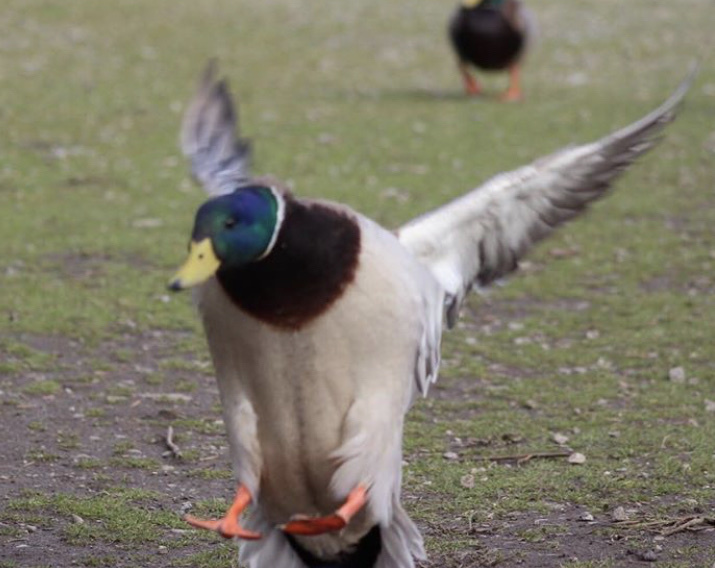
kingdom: Animalia
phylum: Chordata
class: Aves
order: Anseriformes
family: Anatidae
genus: Anas
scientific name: Anas platyrhynchos
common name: Mallard
